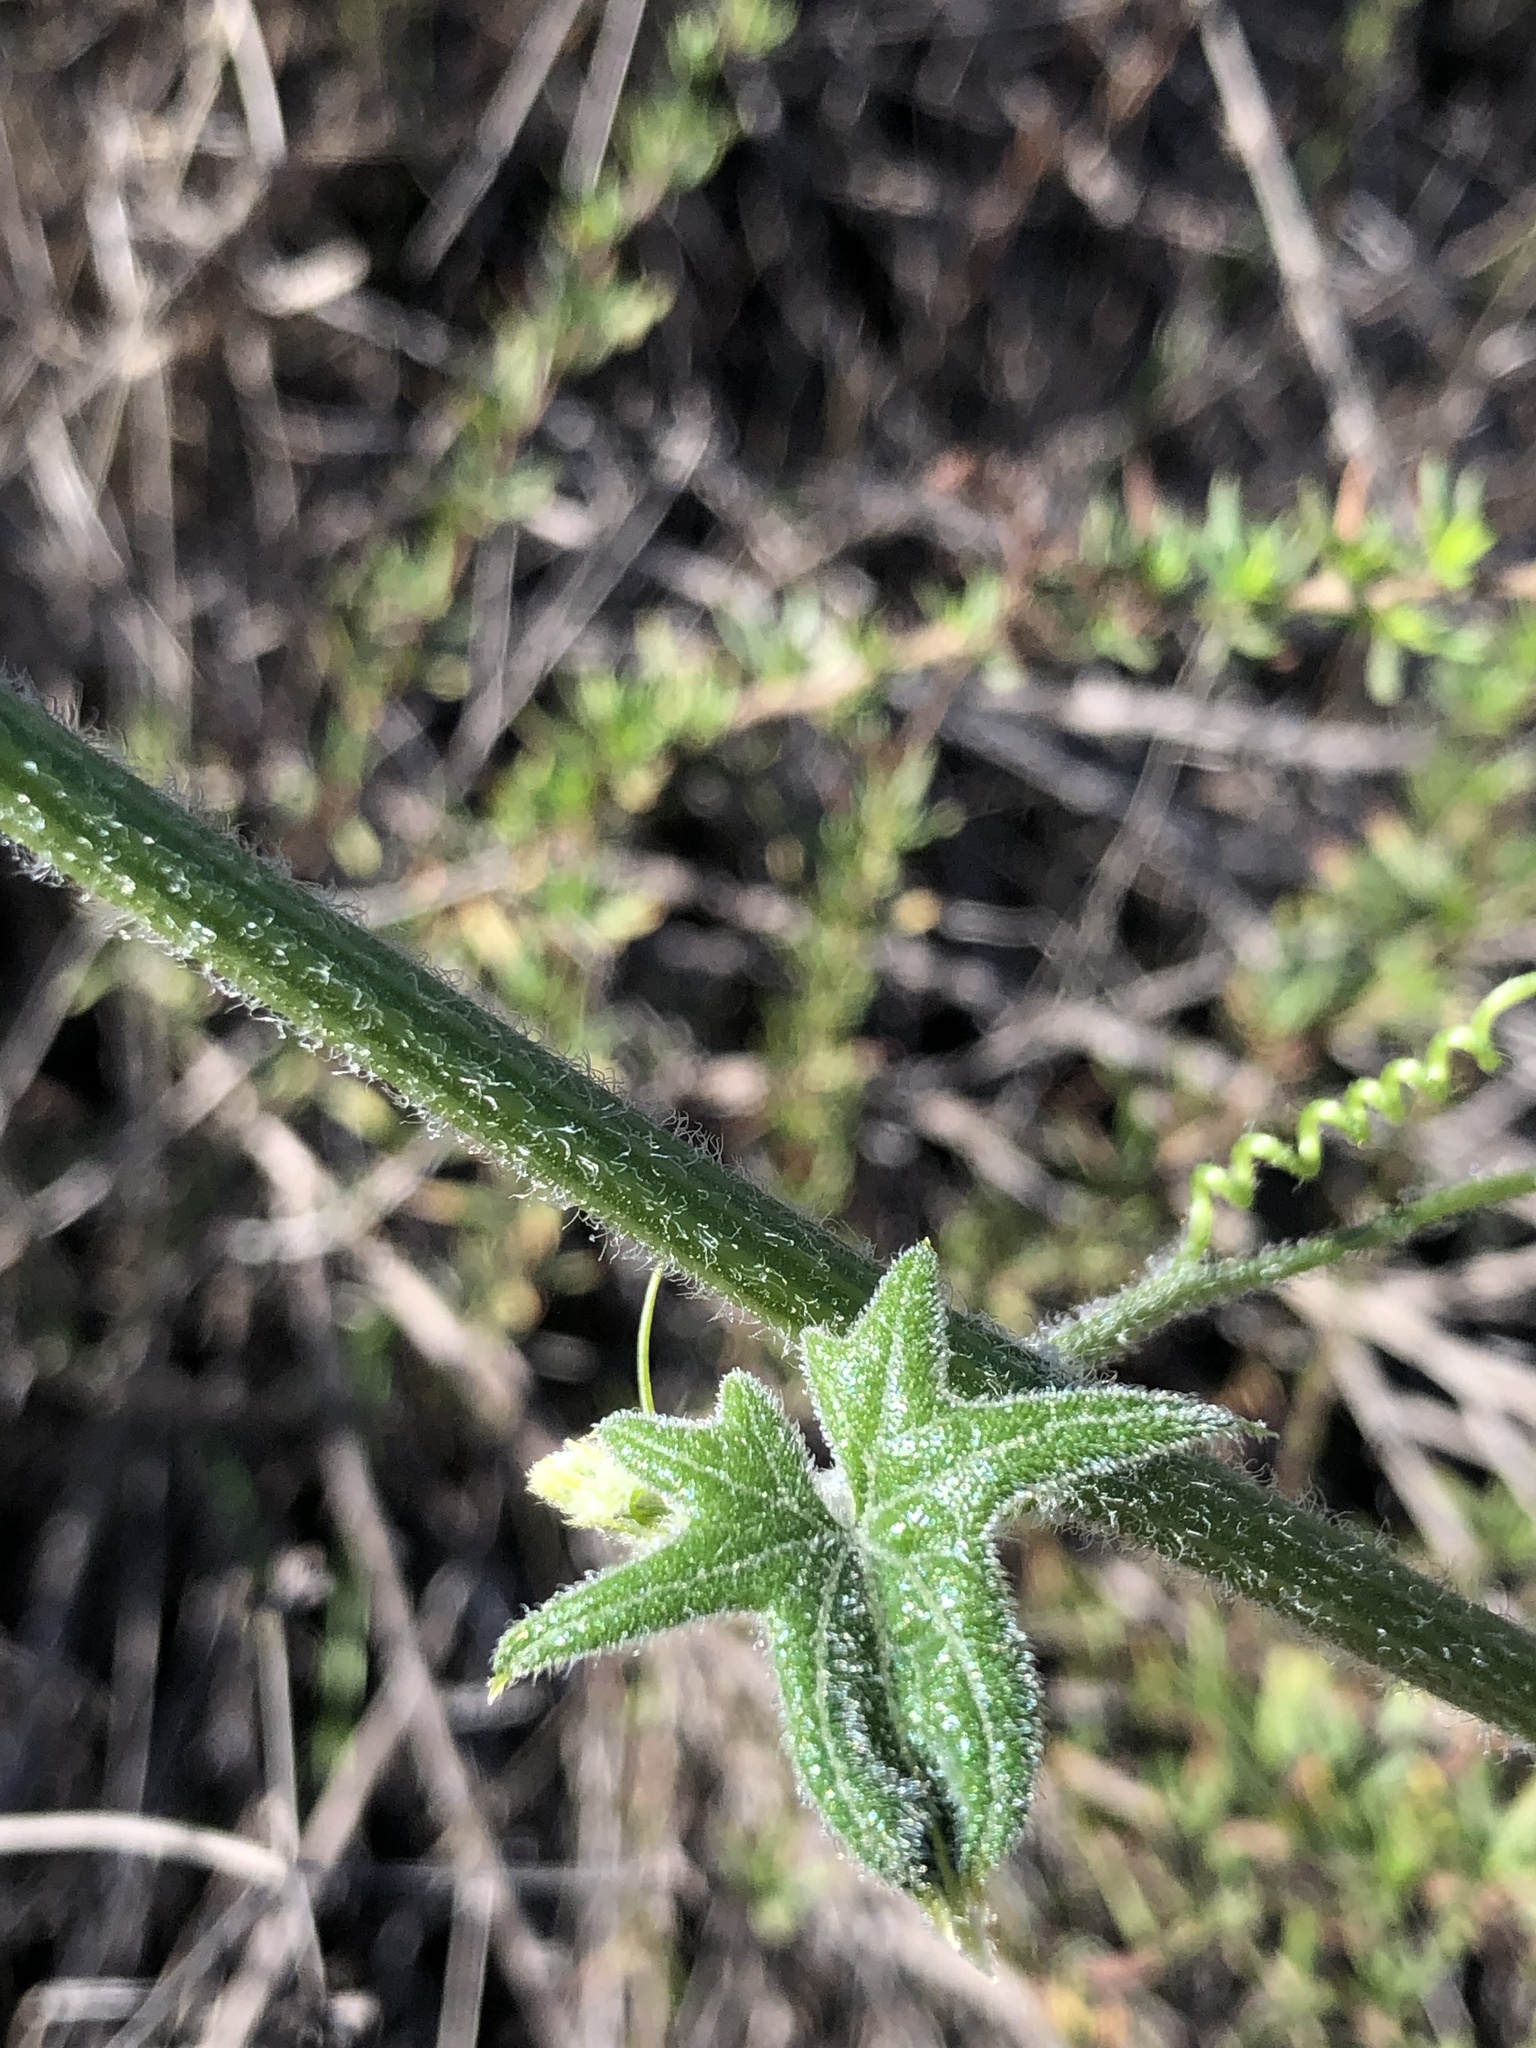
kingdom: Plantae
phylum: Tracheophyta
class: Magnoliopsida
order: Cucurbitales
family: Cucurbitaceae
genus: Marah
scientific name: Marah macrocarpa
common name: Cucamonga manroot
